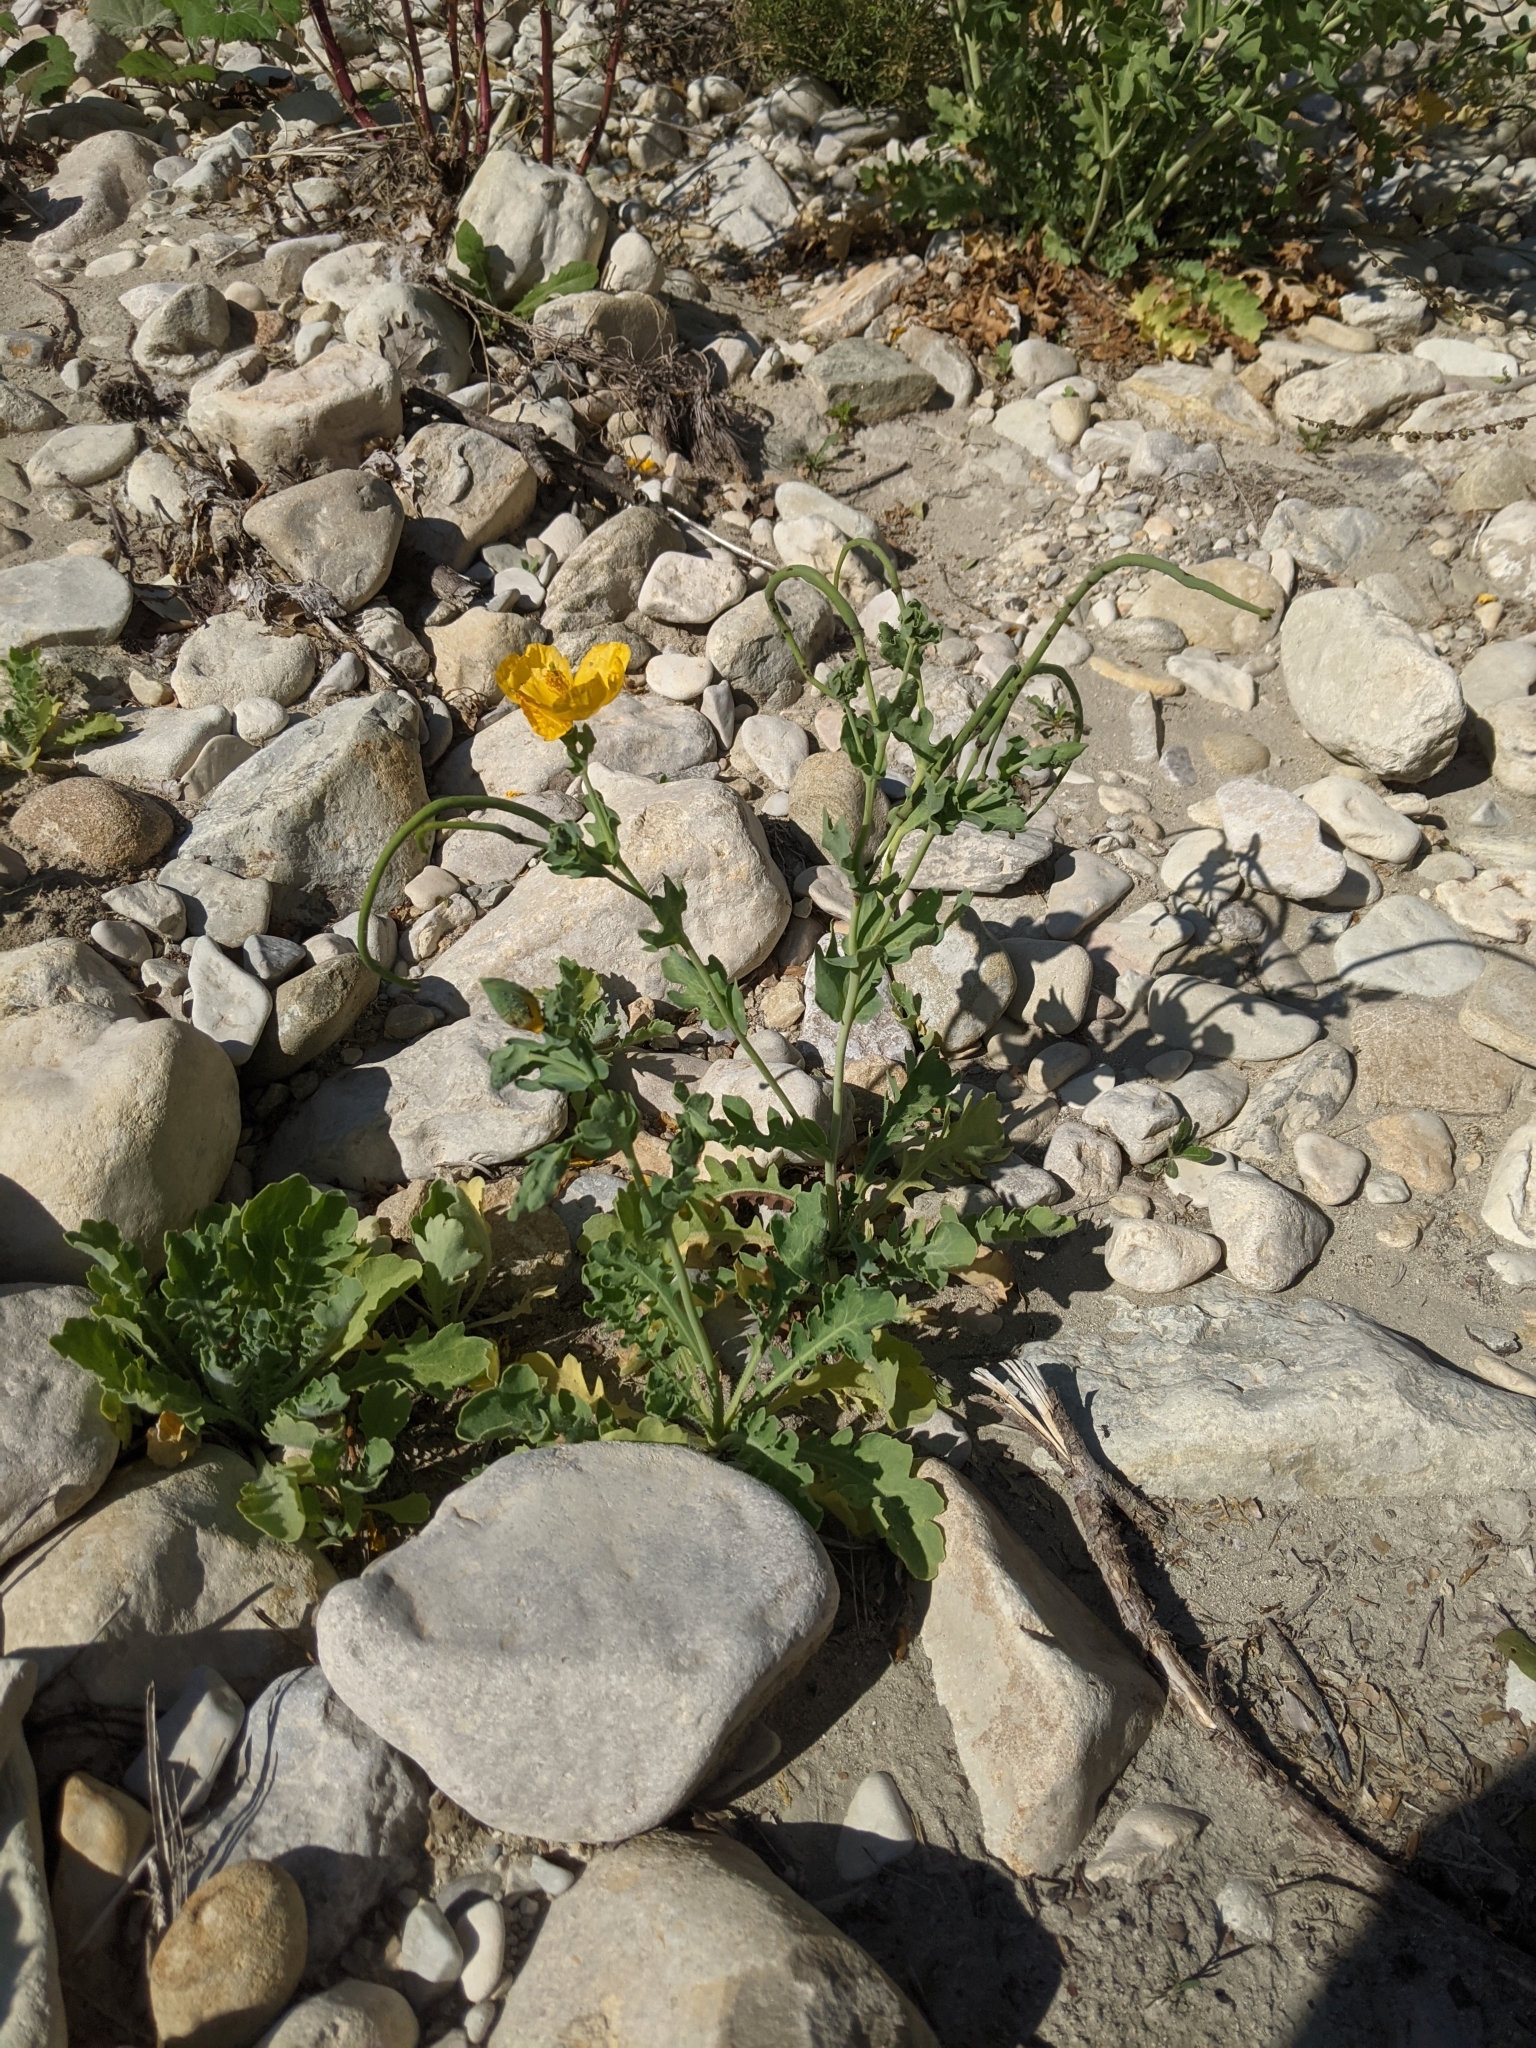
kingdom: Plantae
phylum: Tracheophyta
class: Magnoliopsida
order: Ranunculales
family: Papaveraceae
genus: Glaucium
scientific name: Glaucium flavum
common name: Yellow horned-poppy
